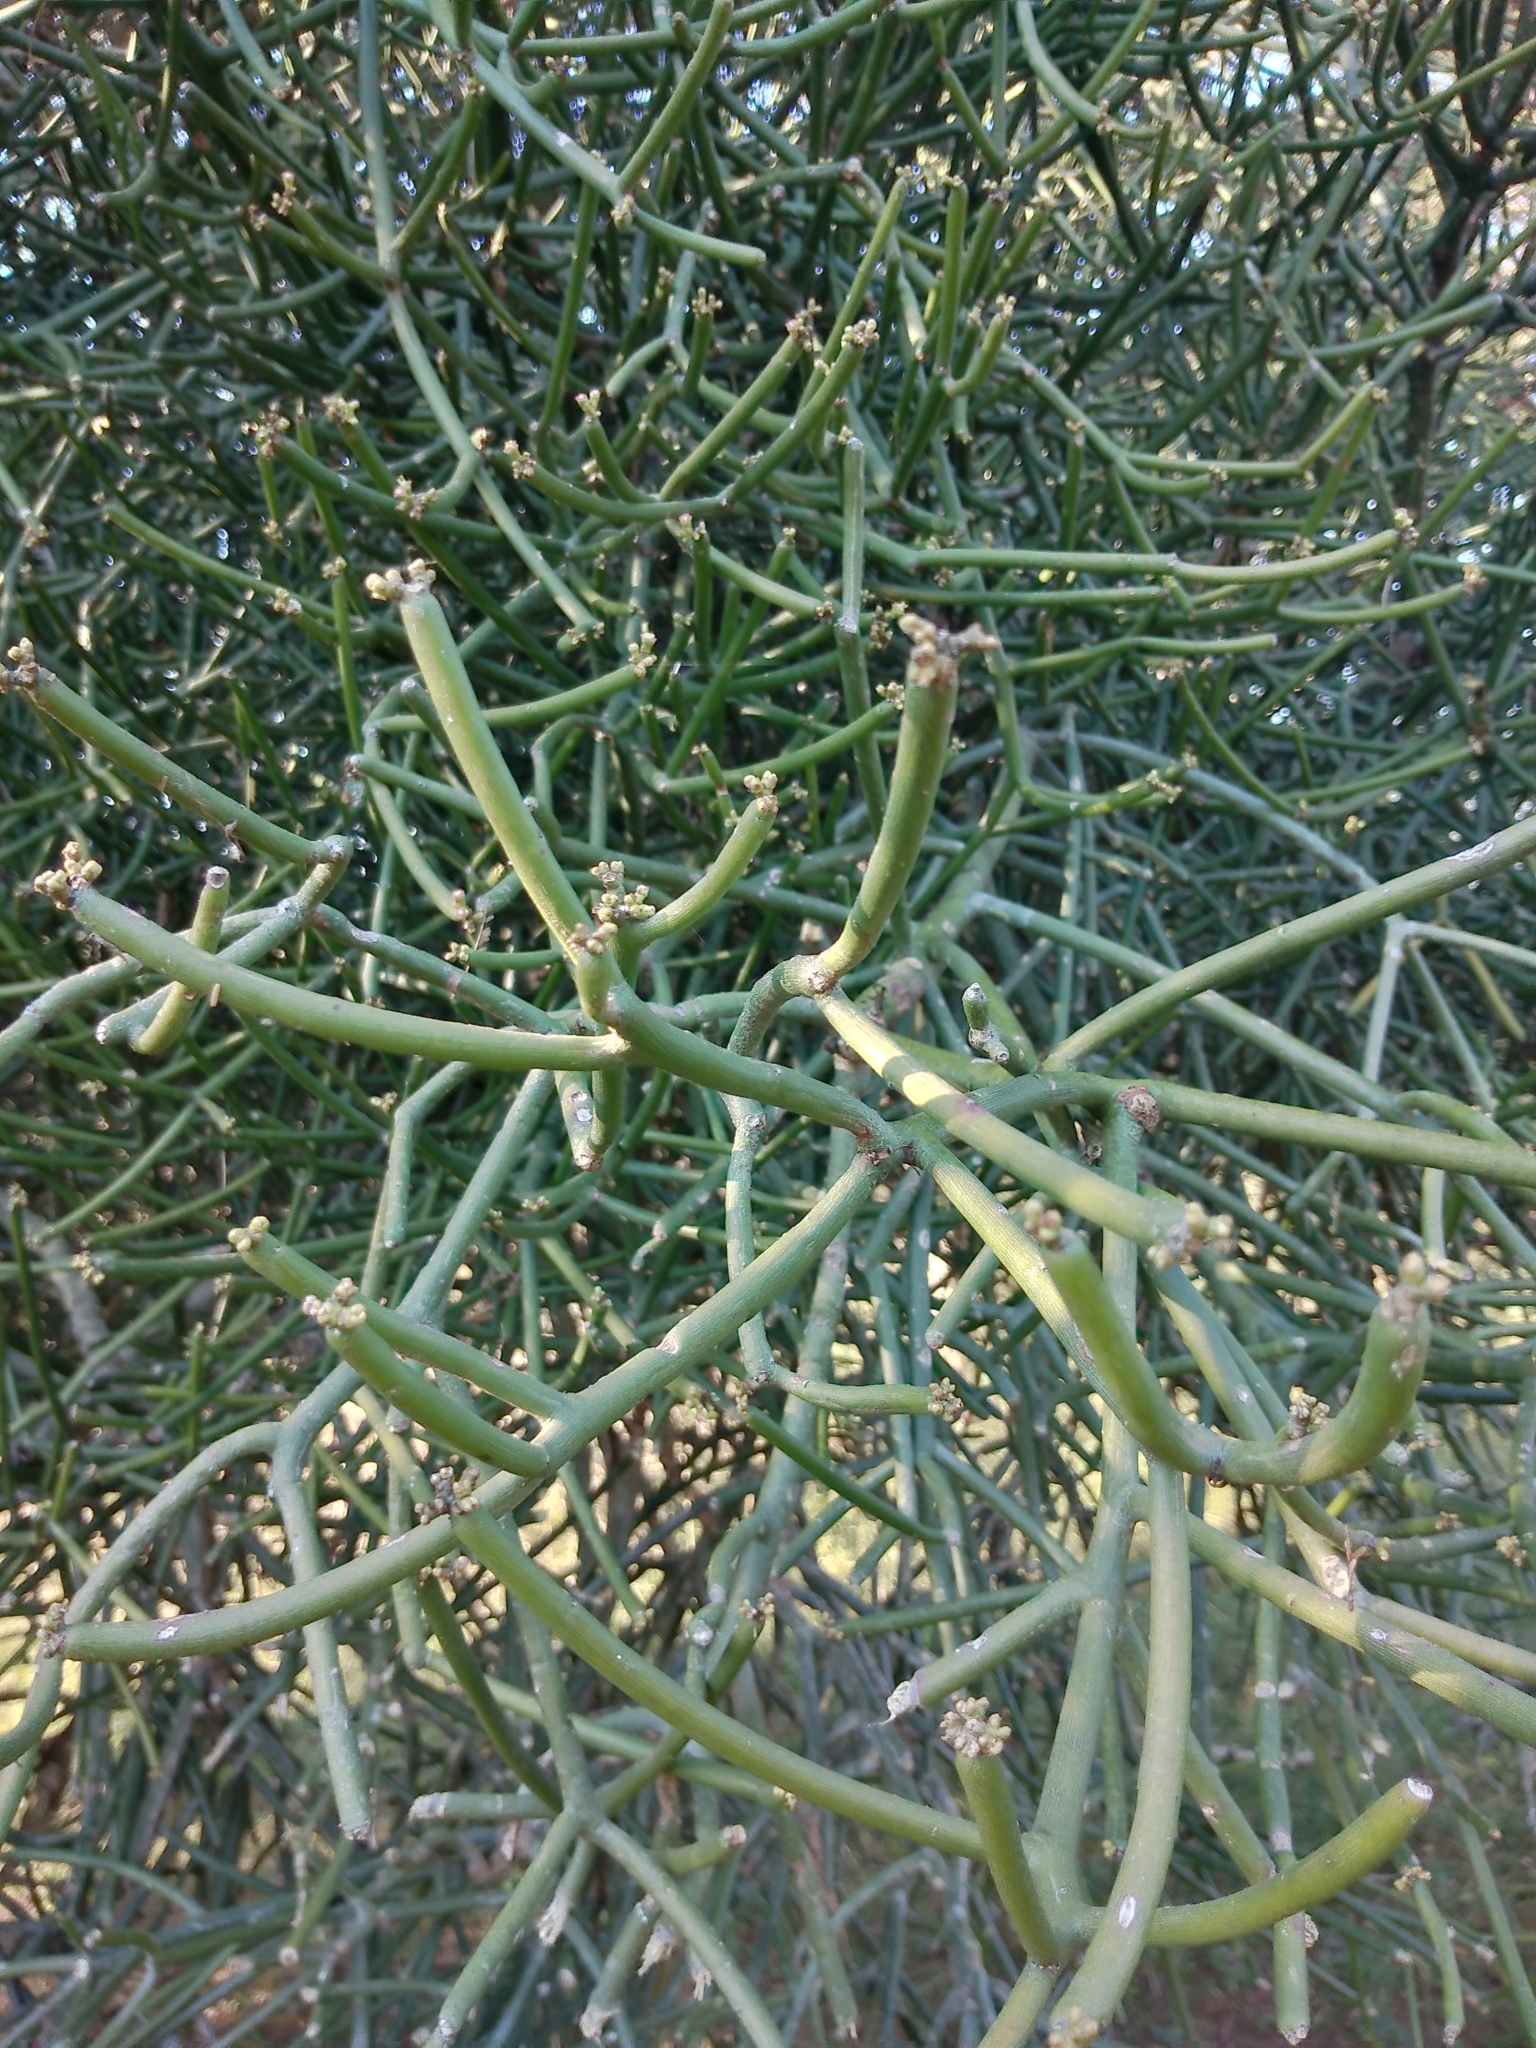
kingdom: Plantae
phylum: Tracheophyta
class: Magnoliopsida
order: Malpighiales
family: Euphorbiaceae
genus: Euphorbia
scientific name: Euphorbia tirucalli
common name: Indiantree spurge
